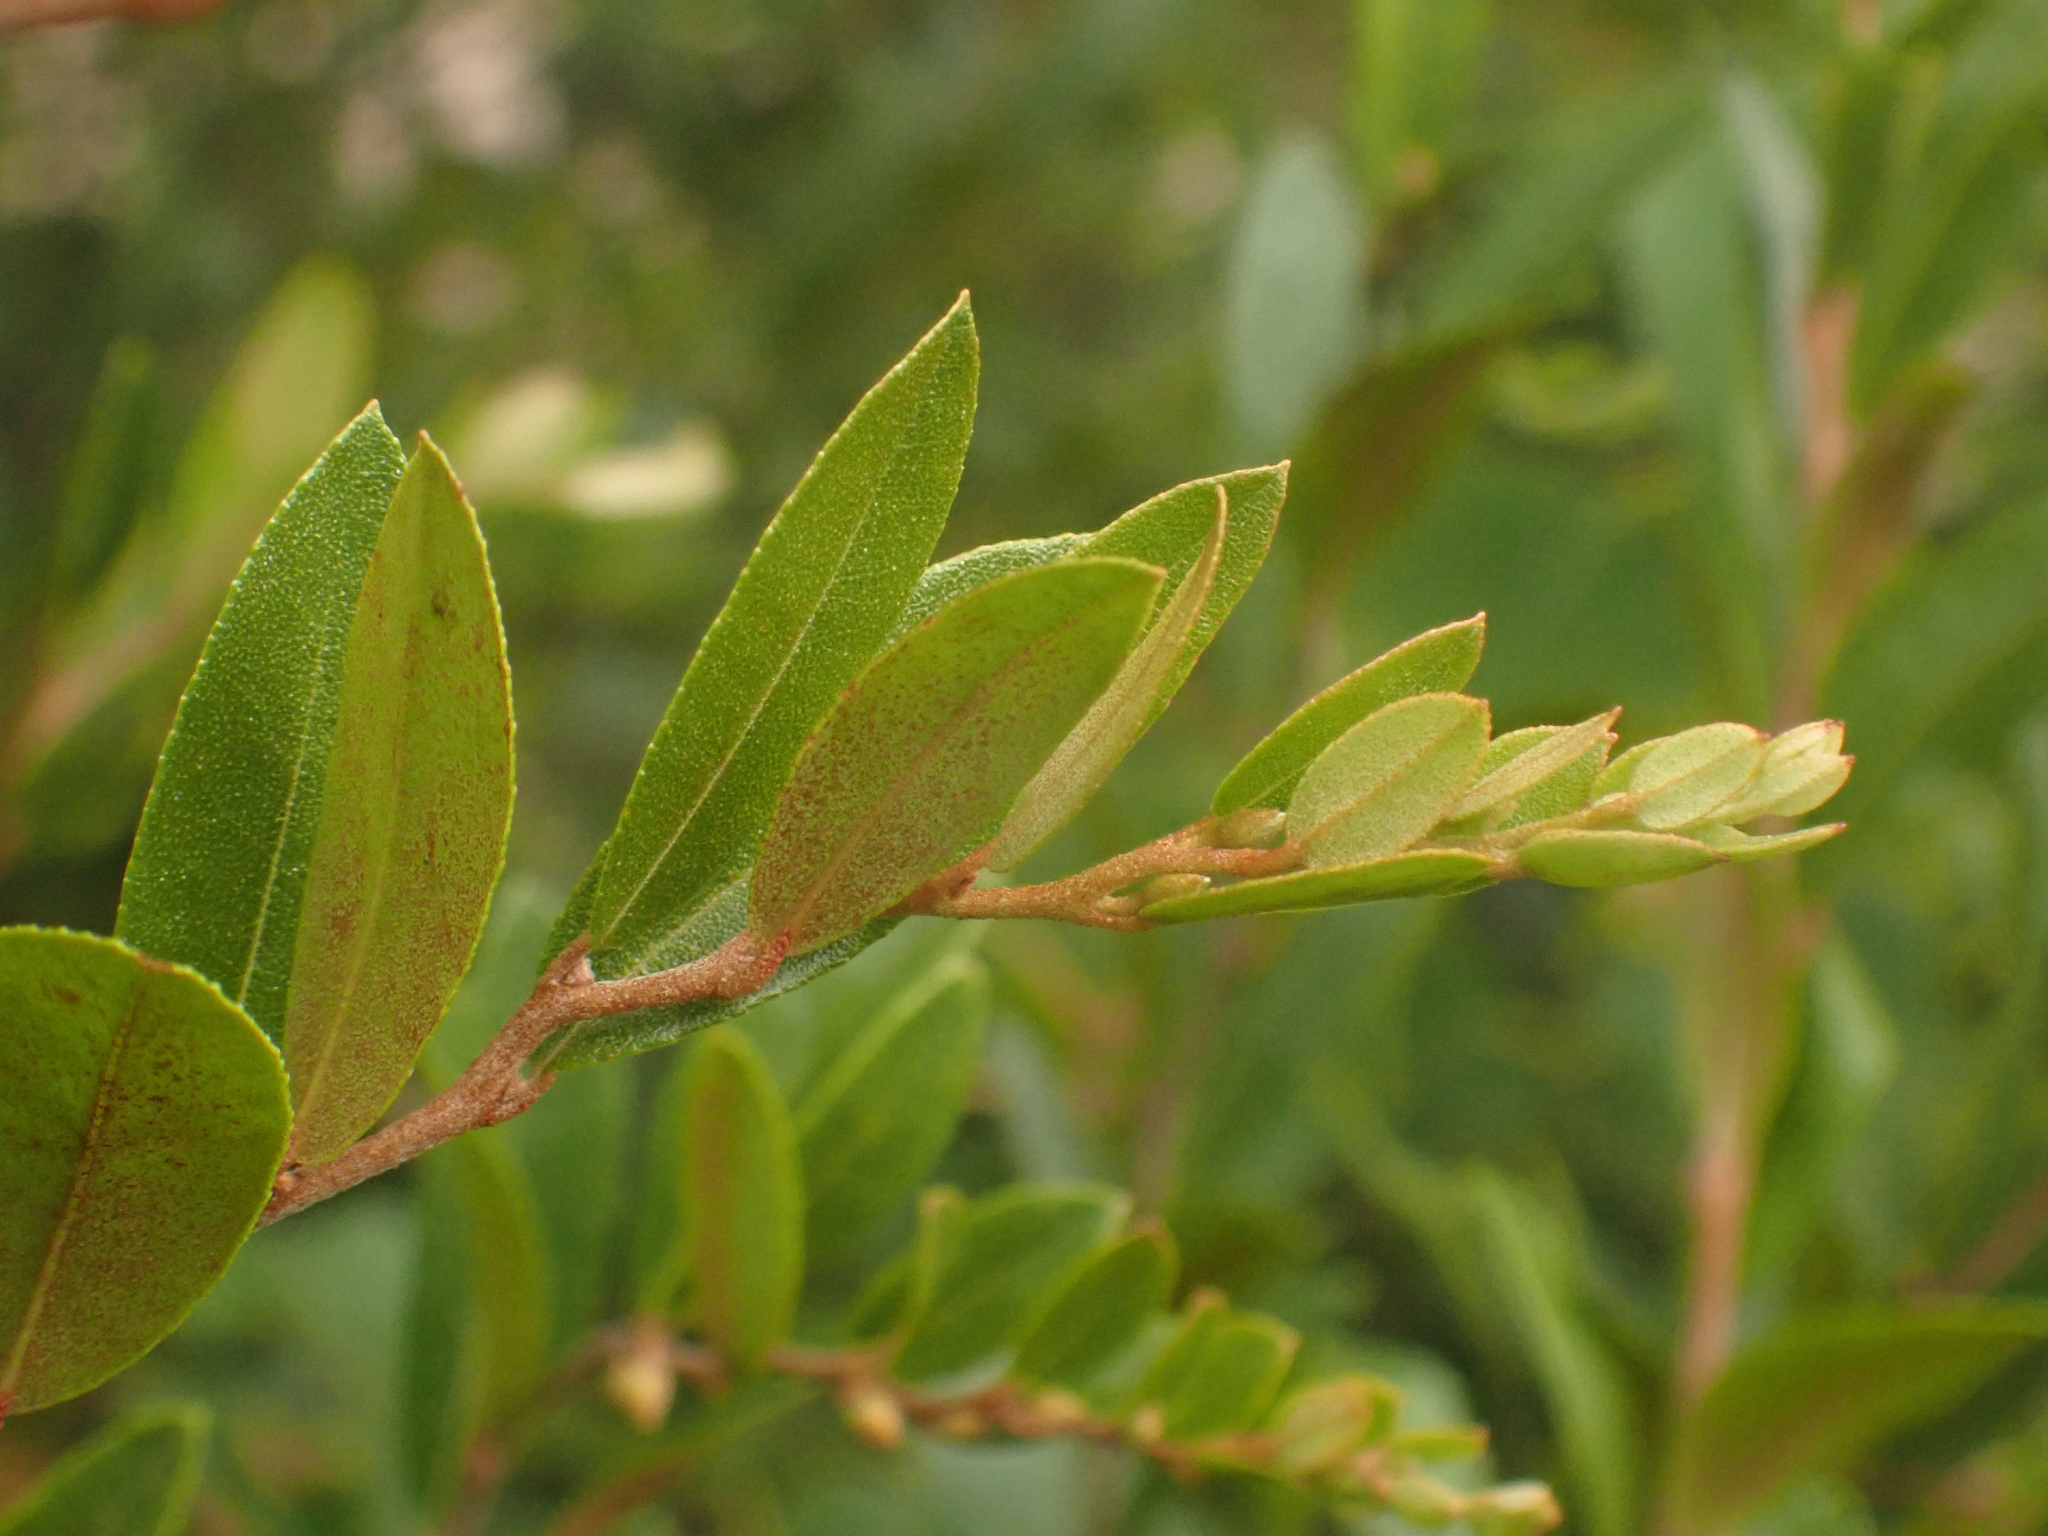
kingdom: Plantae
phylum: Tracheophyta
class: Magnoliopsida
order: Ericales
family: Ericaceae
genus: Chamaedaphne
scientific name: Chamaedaphne calyculata
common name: Leatherleaf
